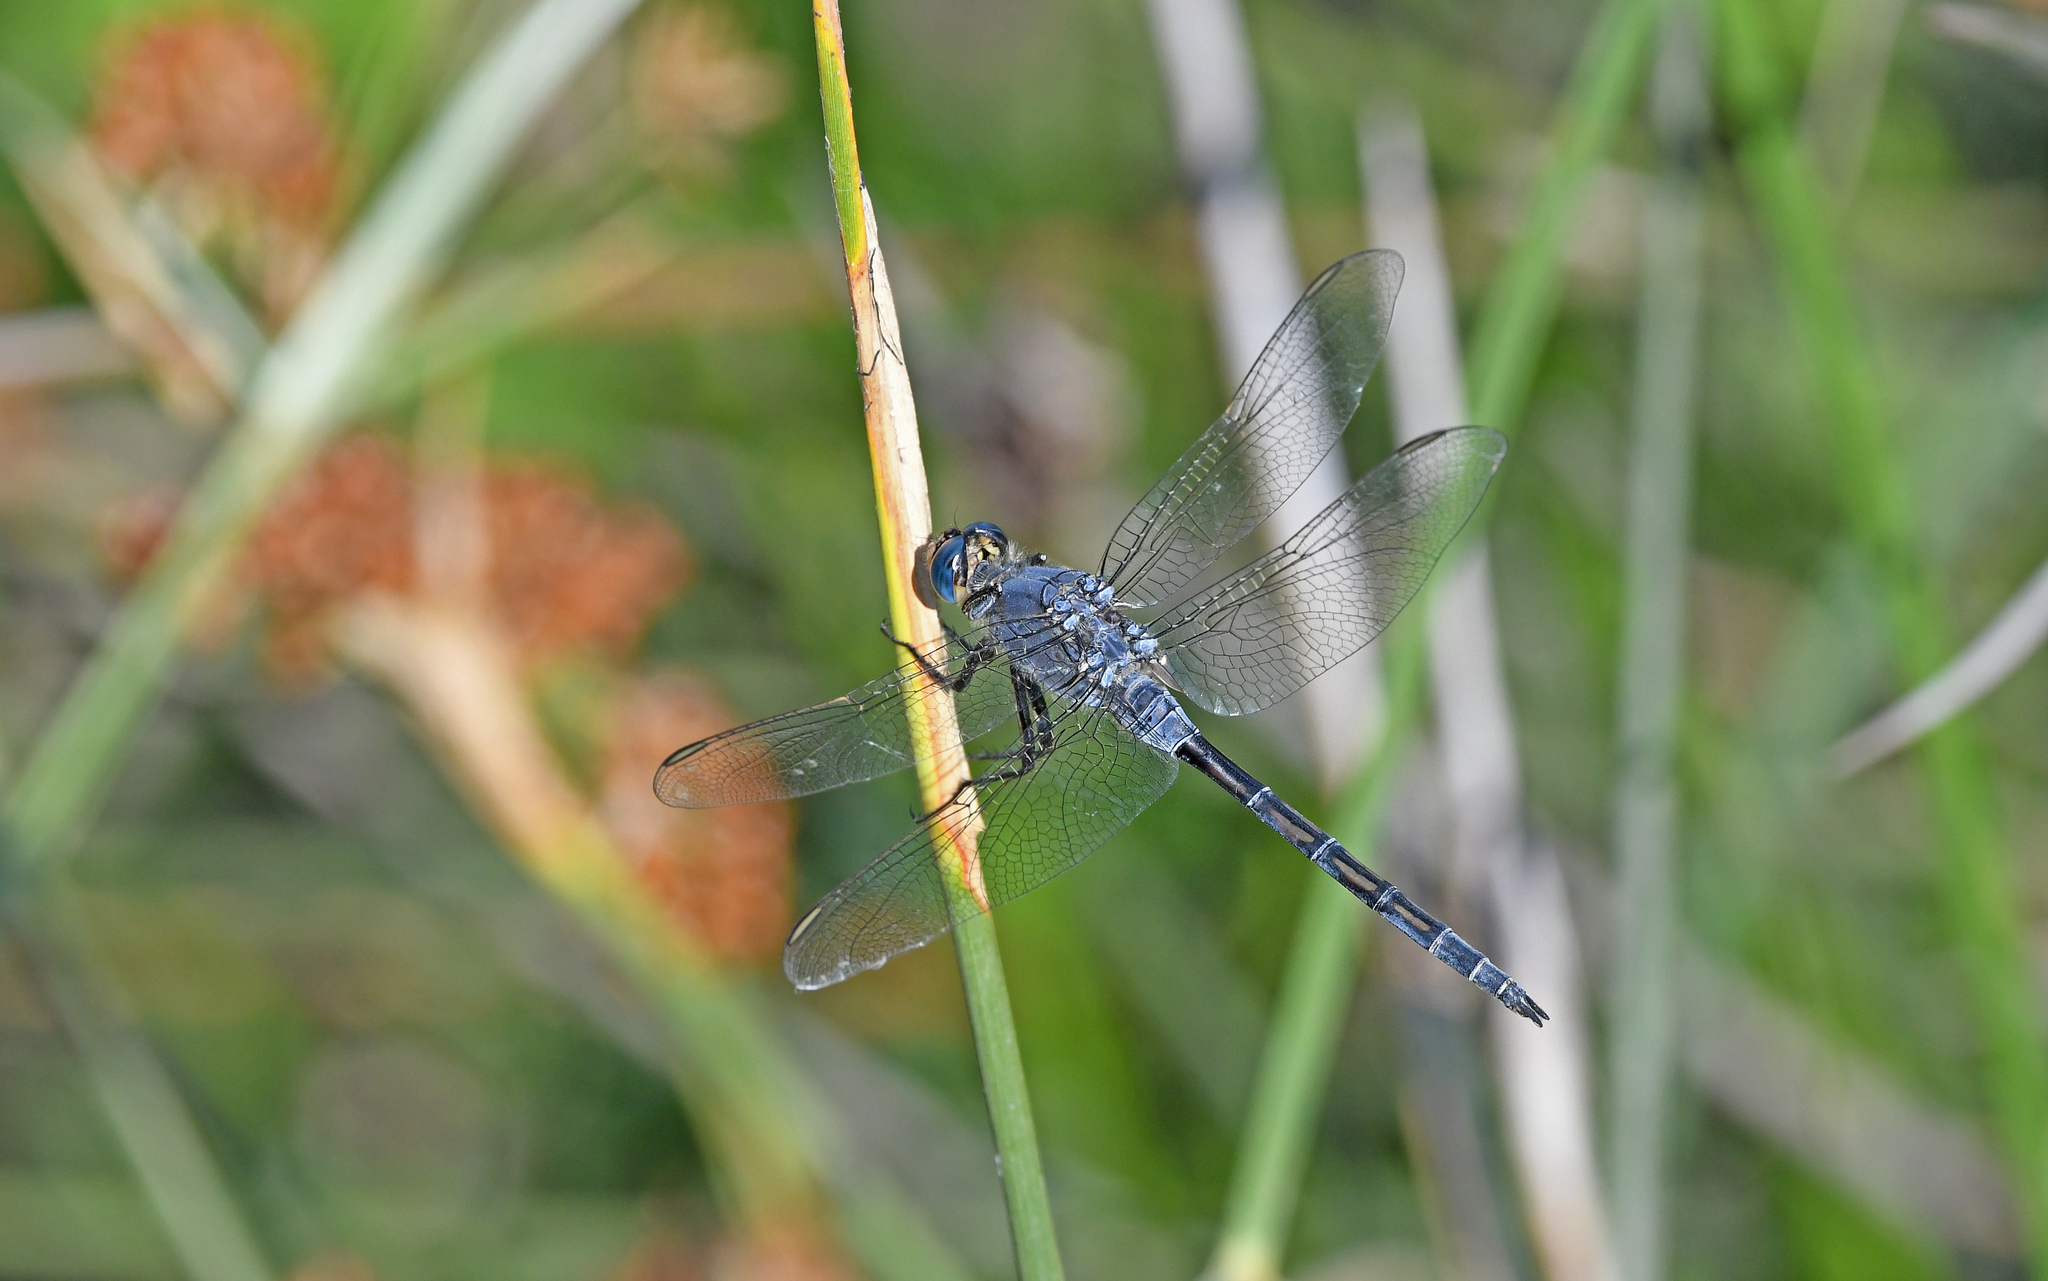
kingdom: Animalia
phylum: Arthropoda
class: Insecta
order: Odonata
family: Libellulidae
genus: Orthetrum
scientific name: Orthetrum trinacria
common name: Long skimmer
